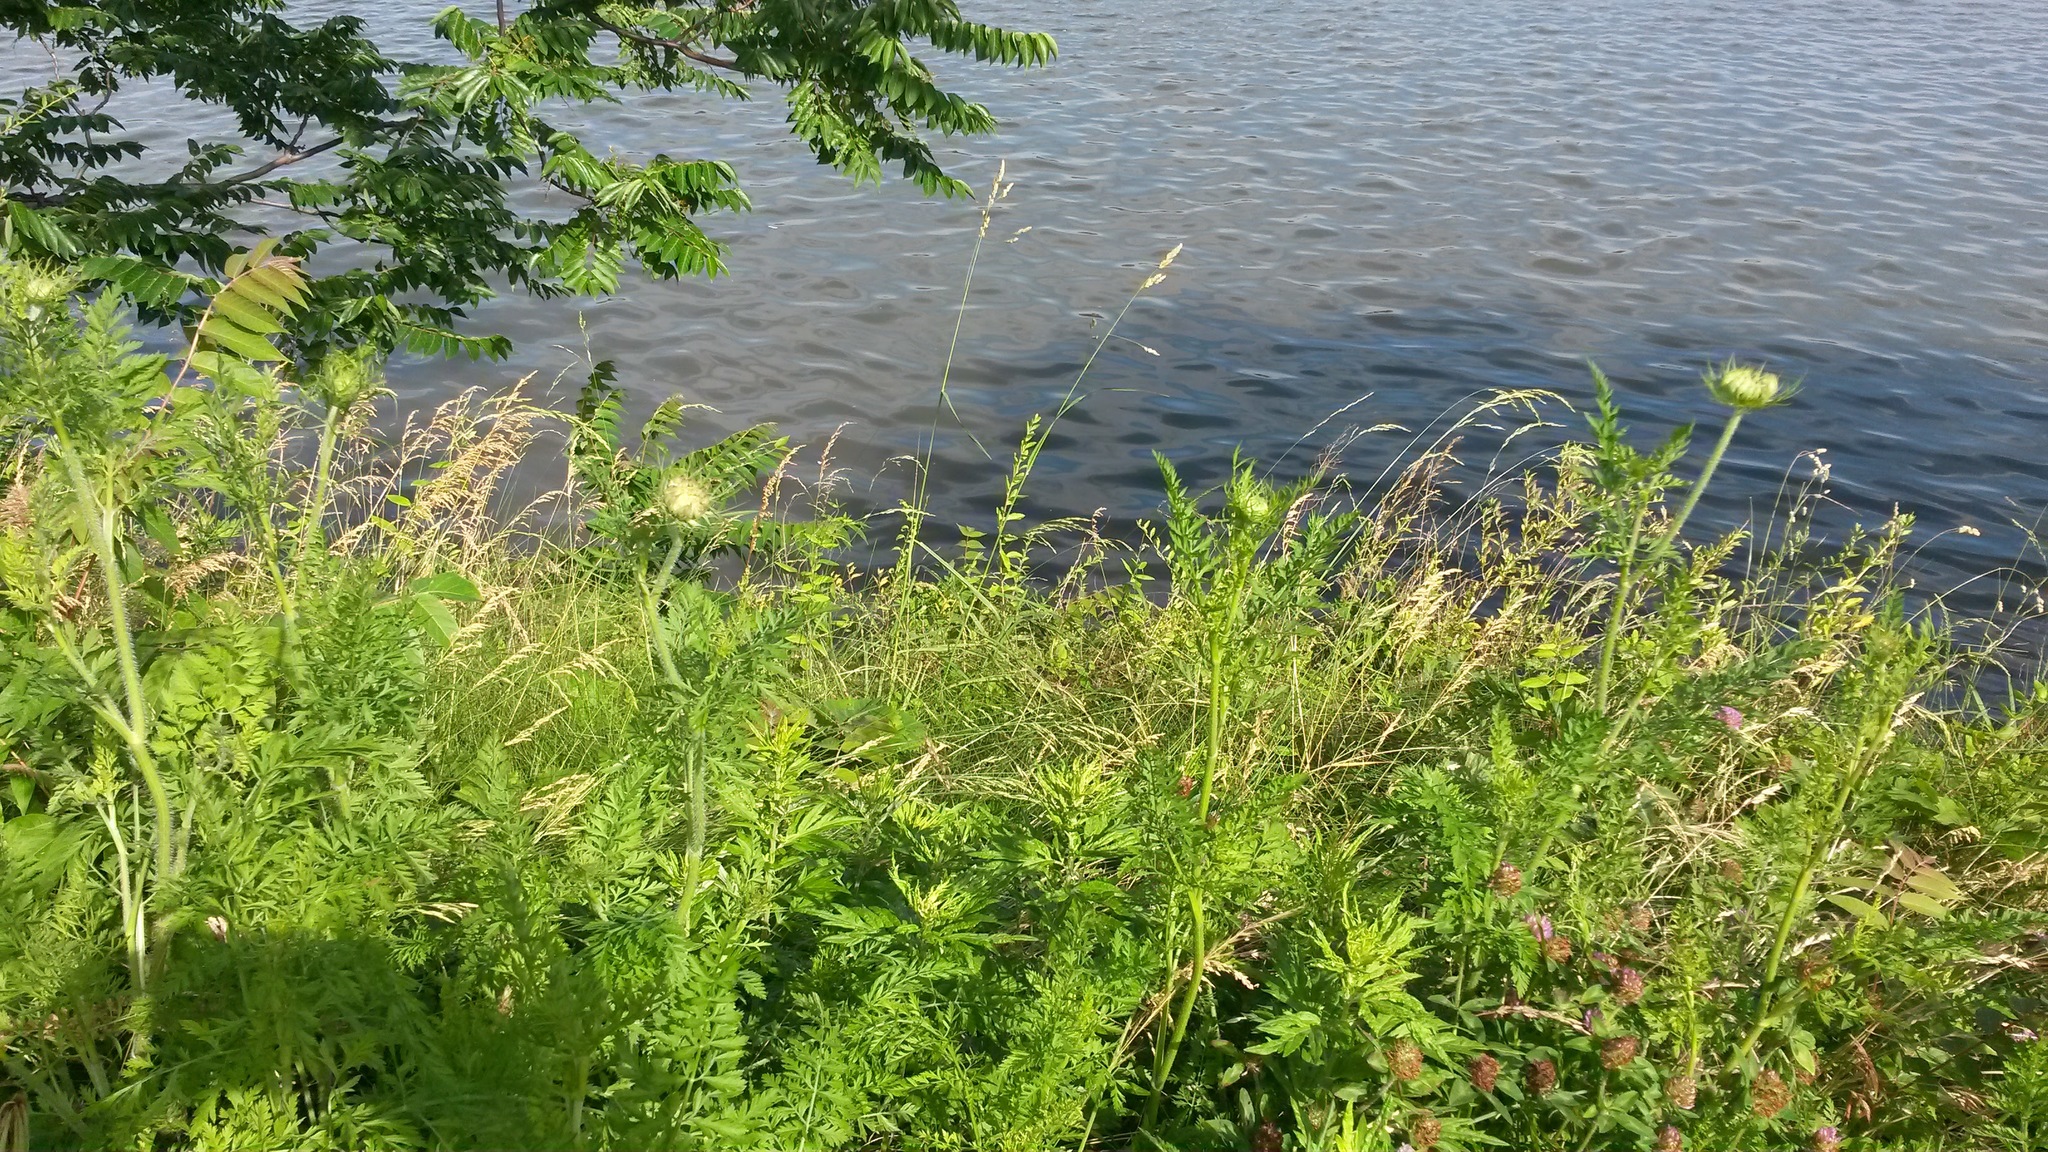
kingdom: Plantae
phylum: Tracheophyta
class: Magnoliopsida
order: Apiales
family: Apiaceae
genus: Daucus
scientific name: Daucus carota
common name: Wild carrot
